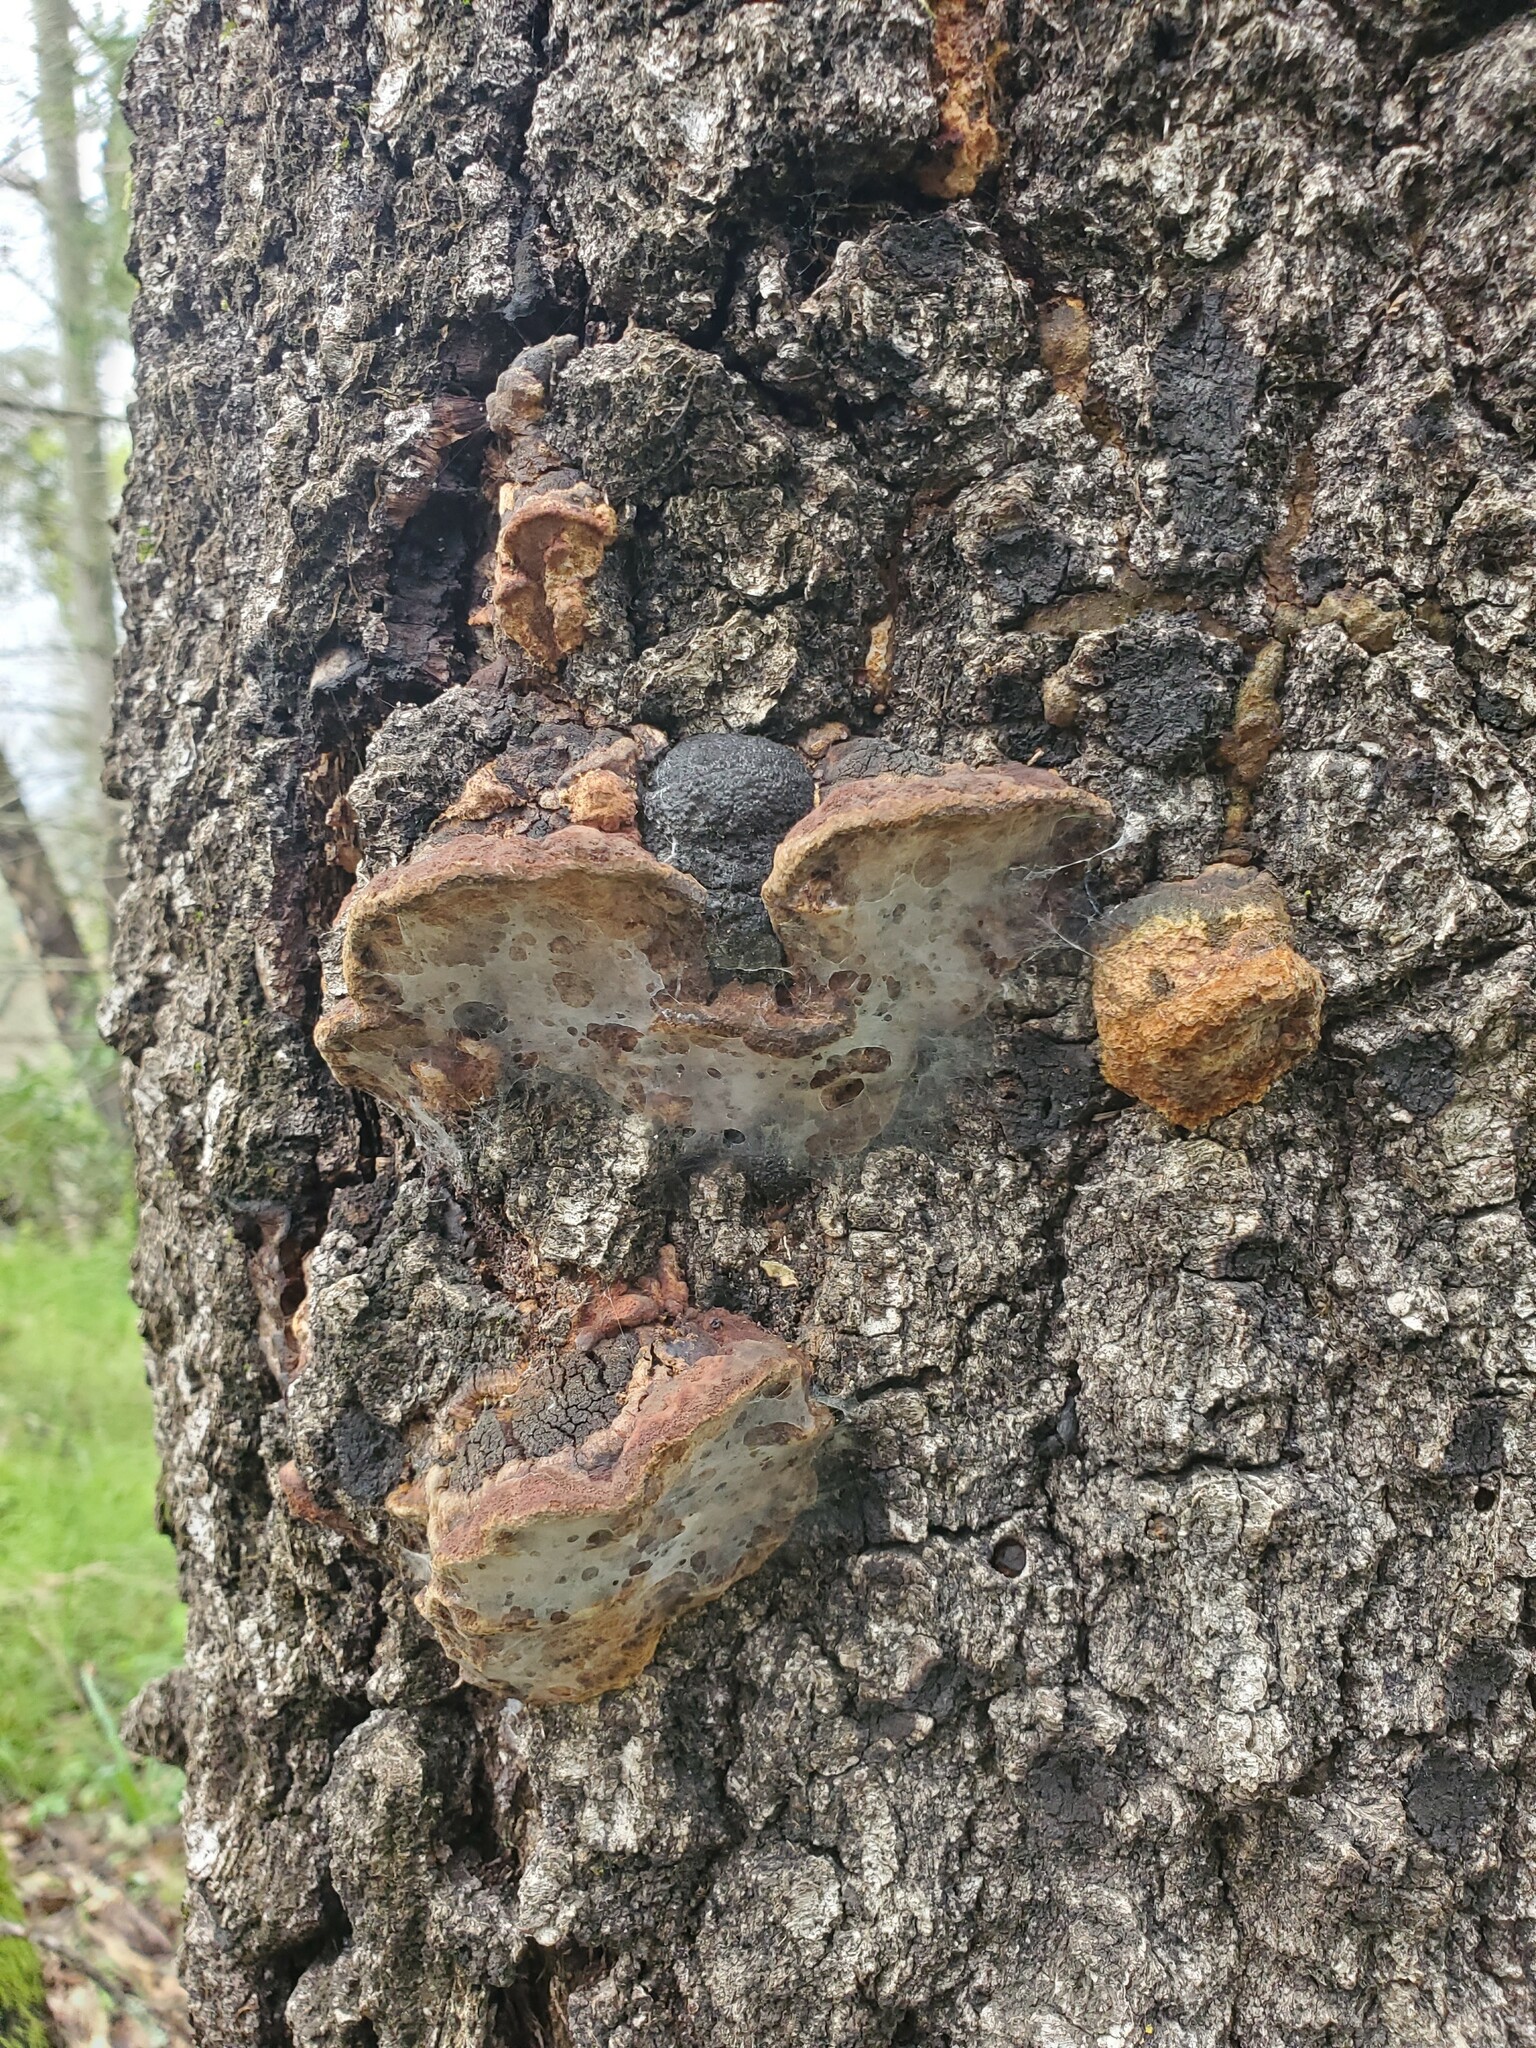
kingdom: Fungi
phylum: Basidiomycota
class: Agaricomycetes
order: Hymenochaetales
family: Hymenochaetaceae
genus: Phellinus
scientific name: Phellinus gilvus
